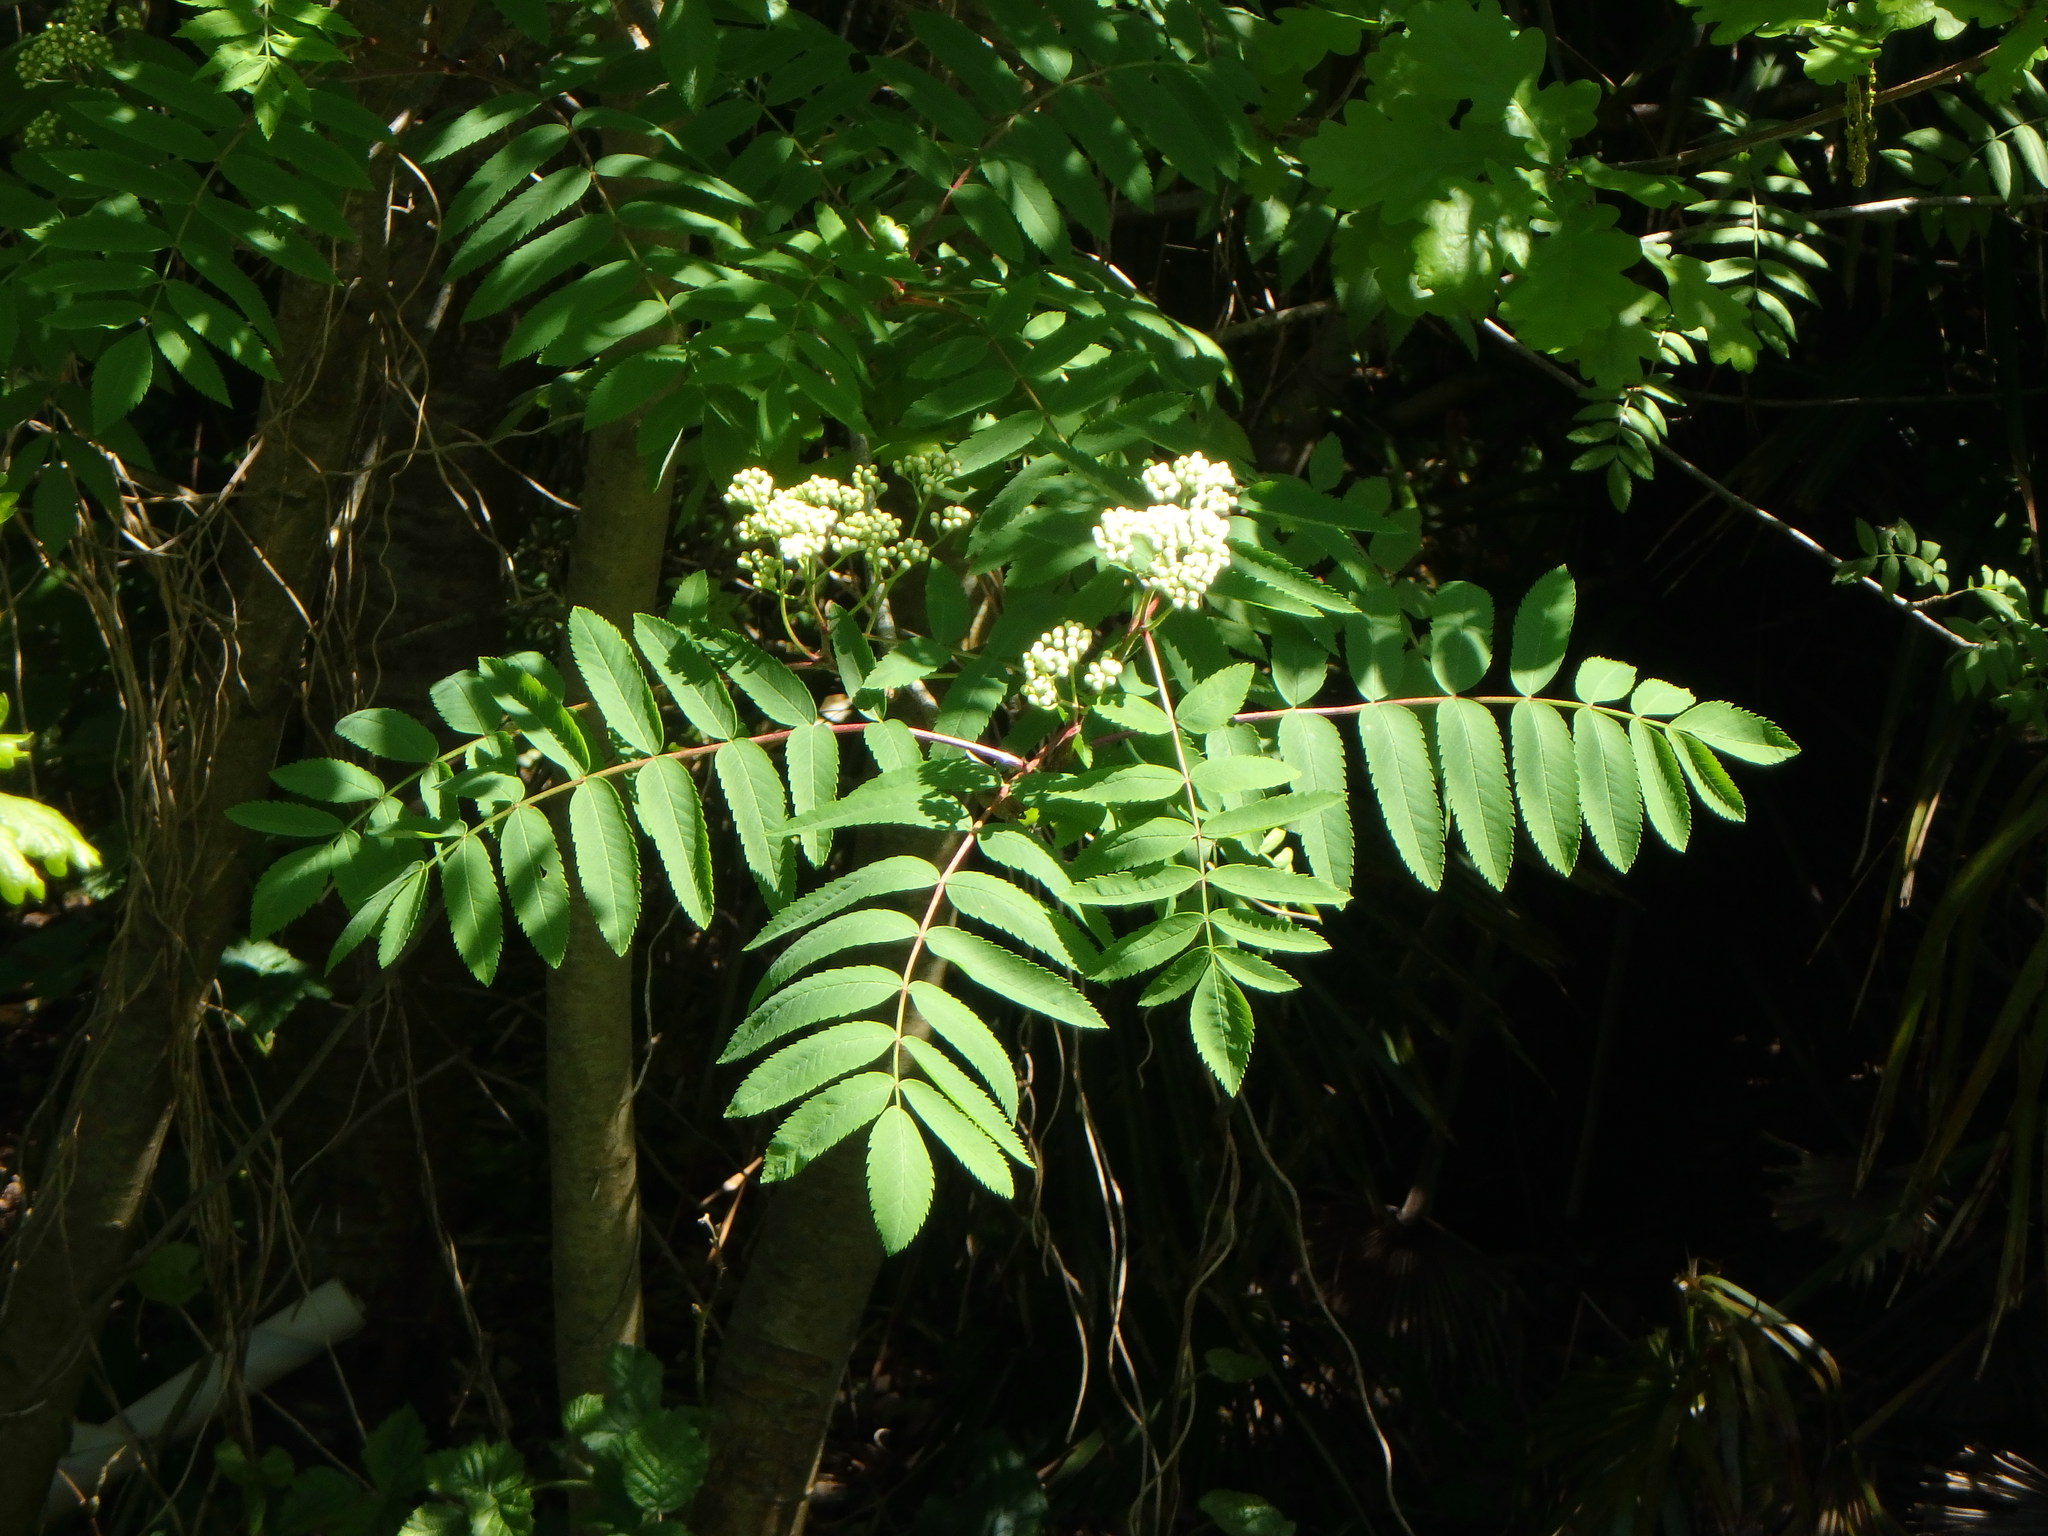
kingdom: Plantae
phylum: Tracheophyta
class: Magnoliopsida
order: Rosales
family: Rosaceae
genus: Sorbus
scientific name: Sorbus aucuparia
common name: Rowan
